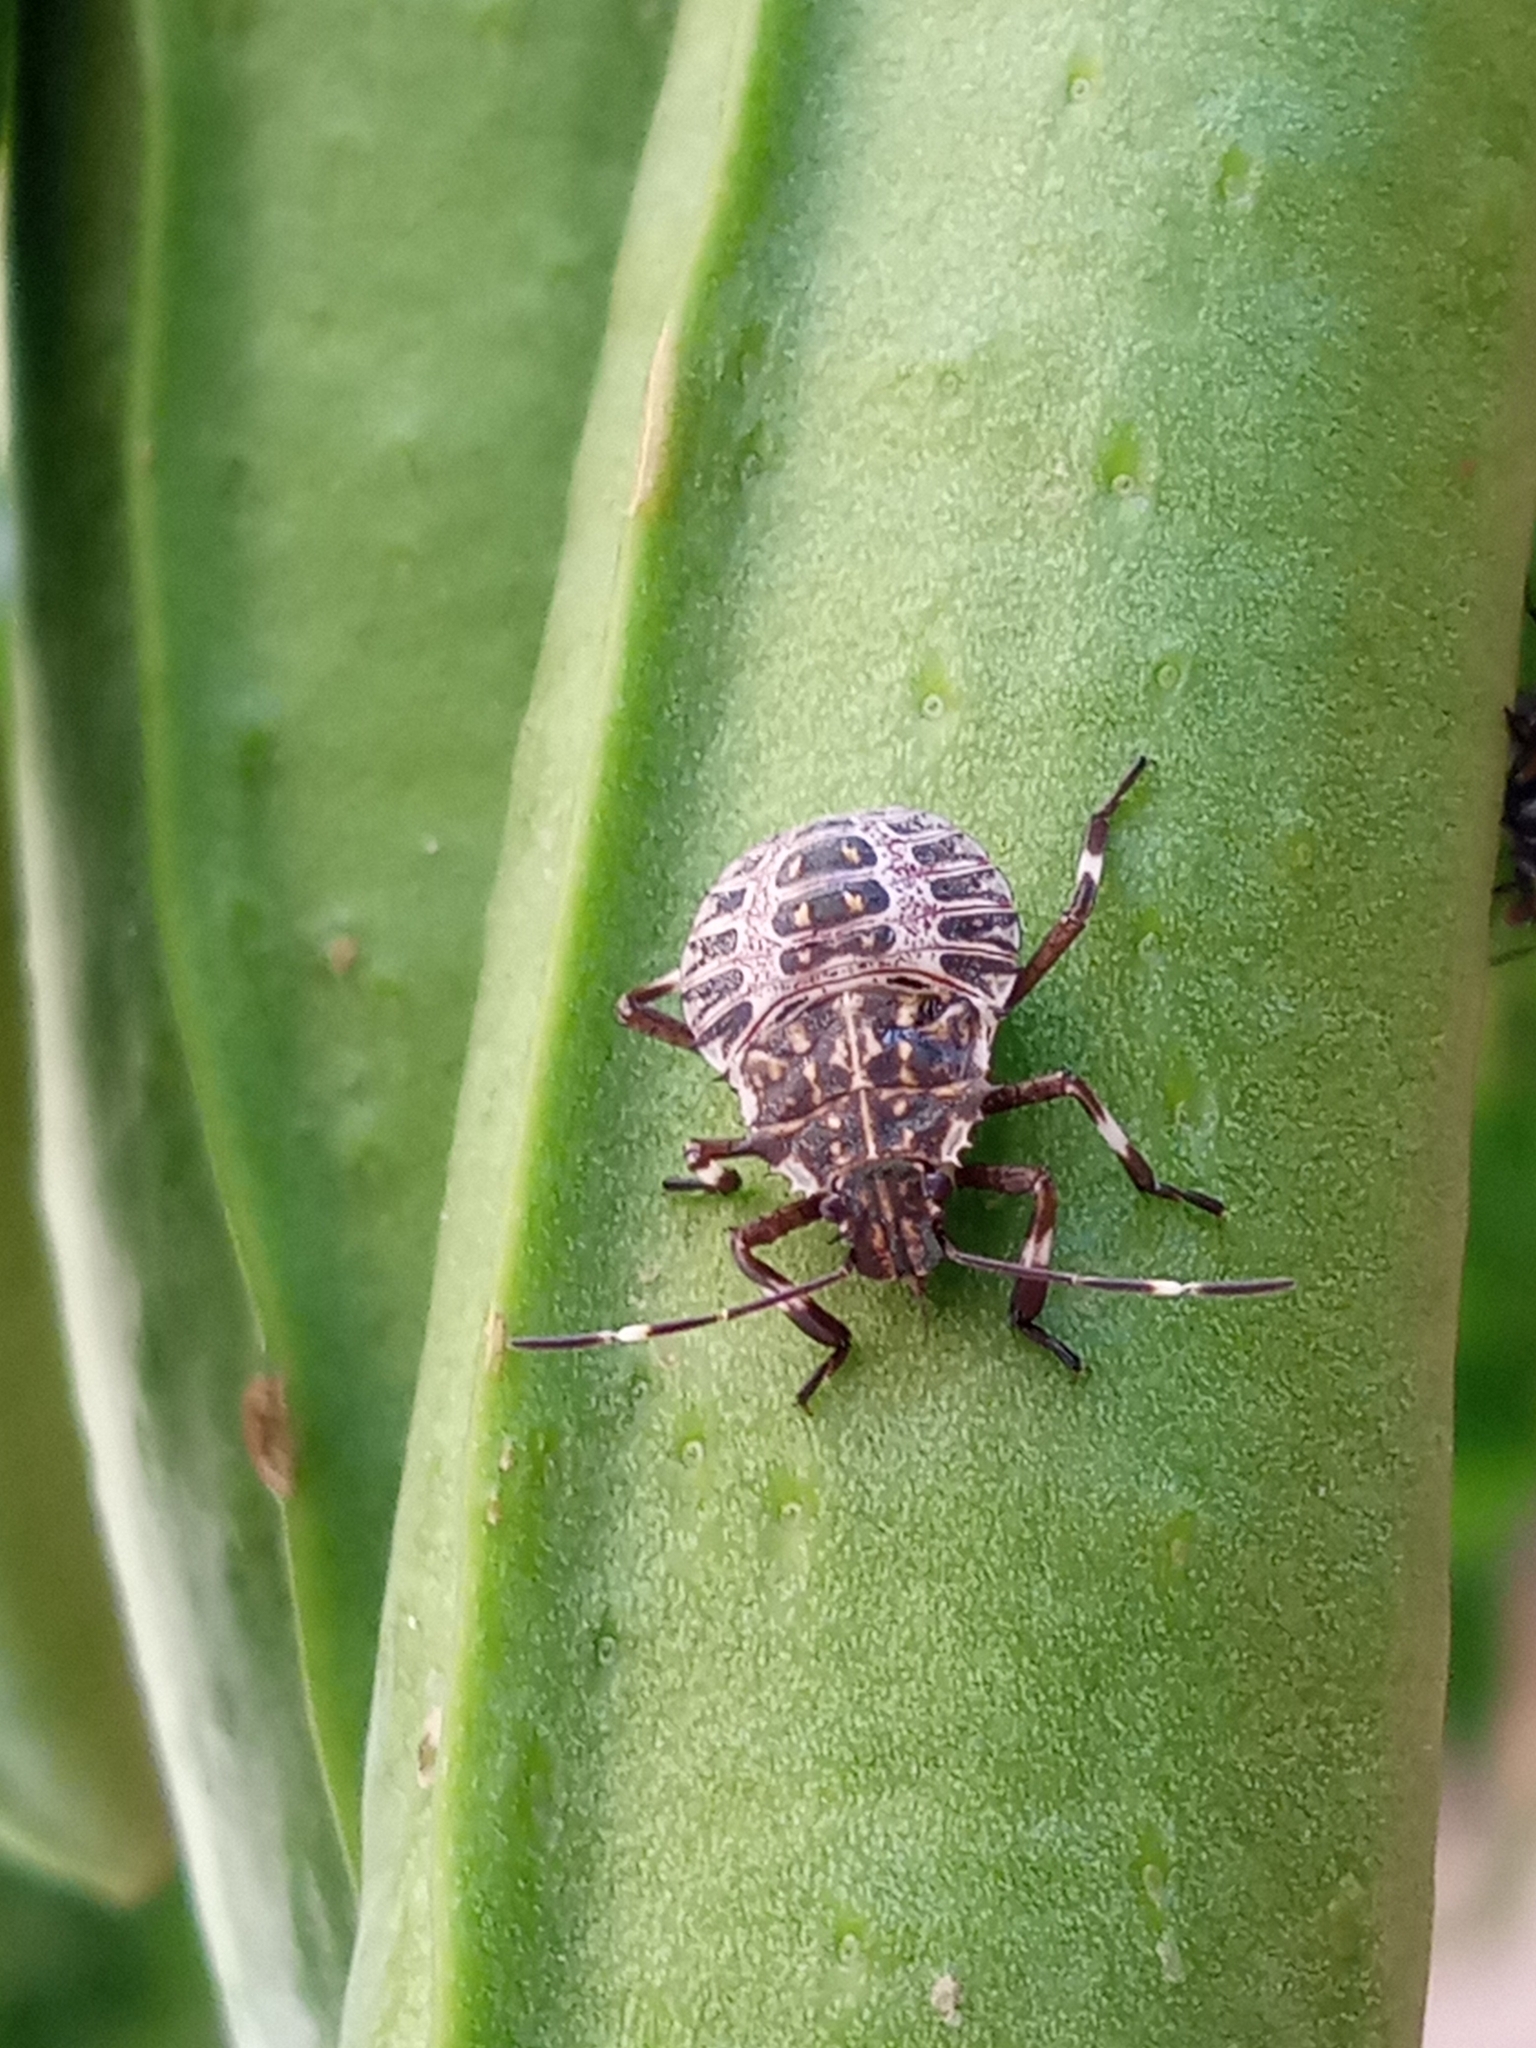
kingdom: Animalia
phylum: Arthropoda
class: Insecta
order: Hemiptera
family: Pentatomidae
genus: Halyomorpha
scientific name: Halyomorpha halys
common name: Brown marmorated stink bug
